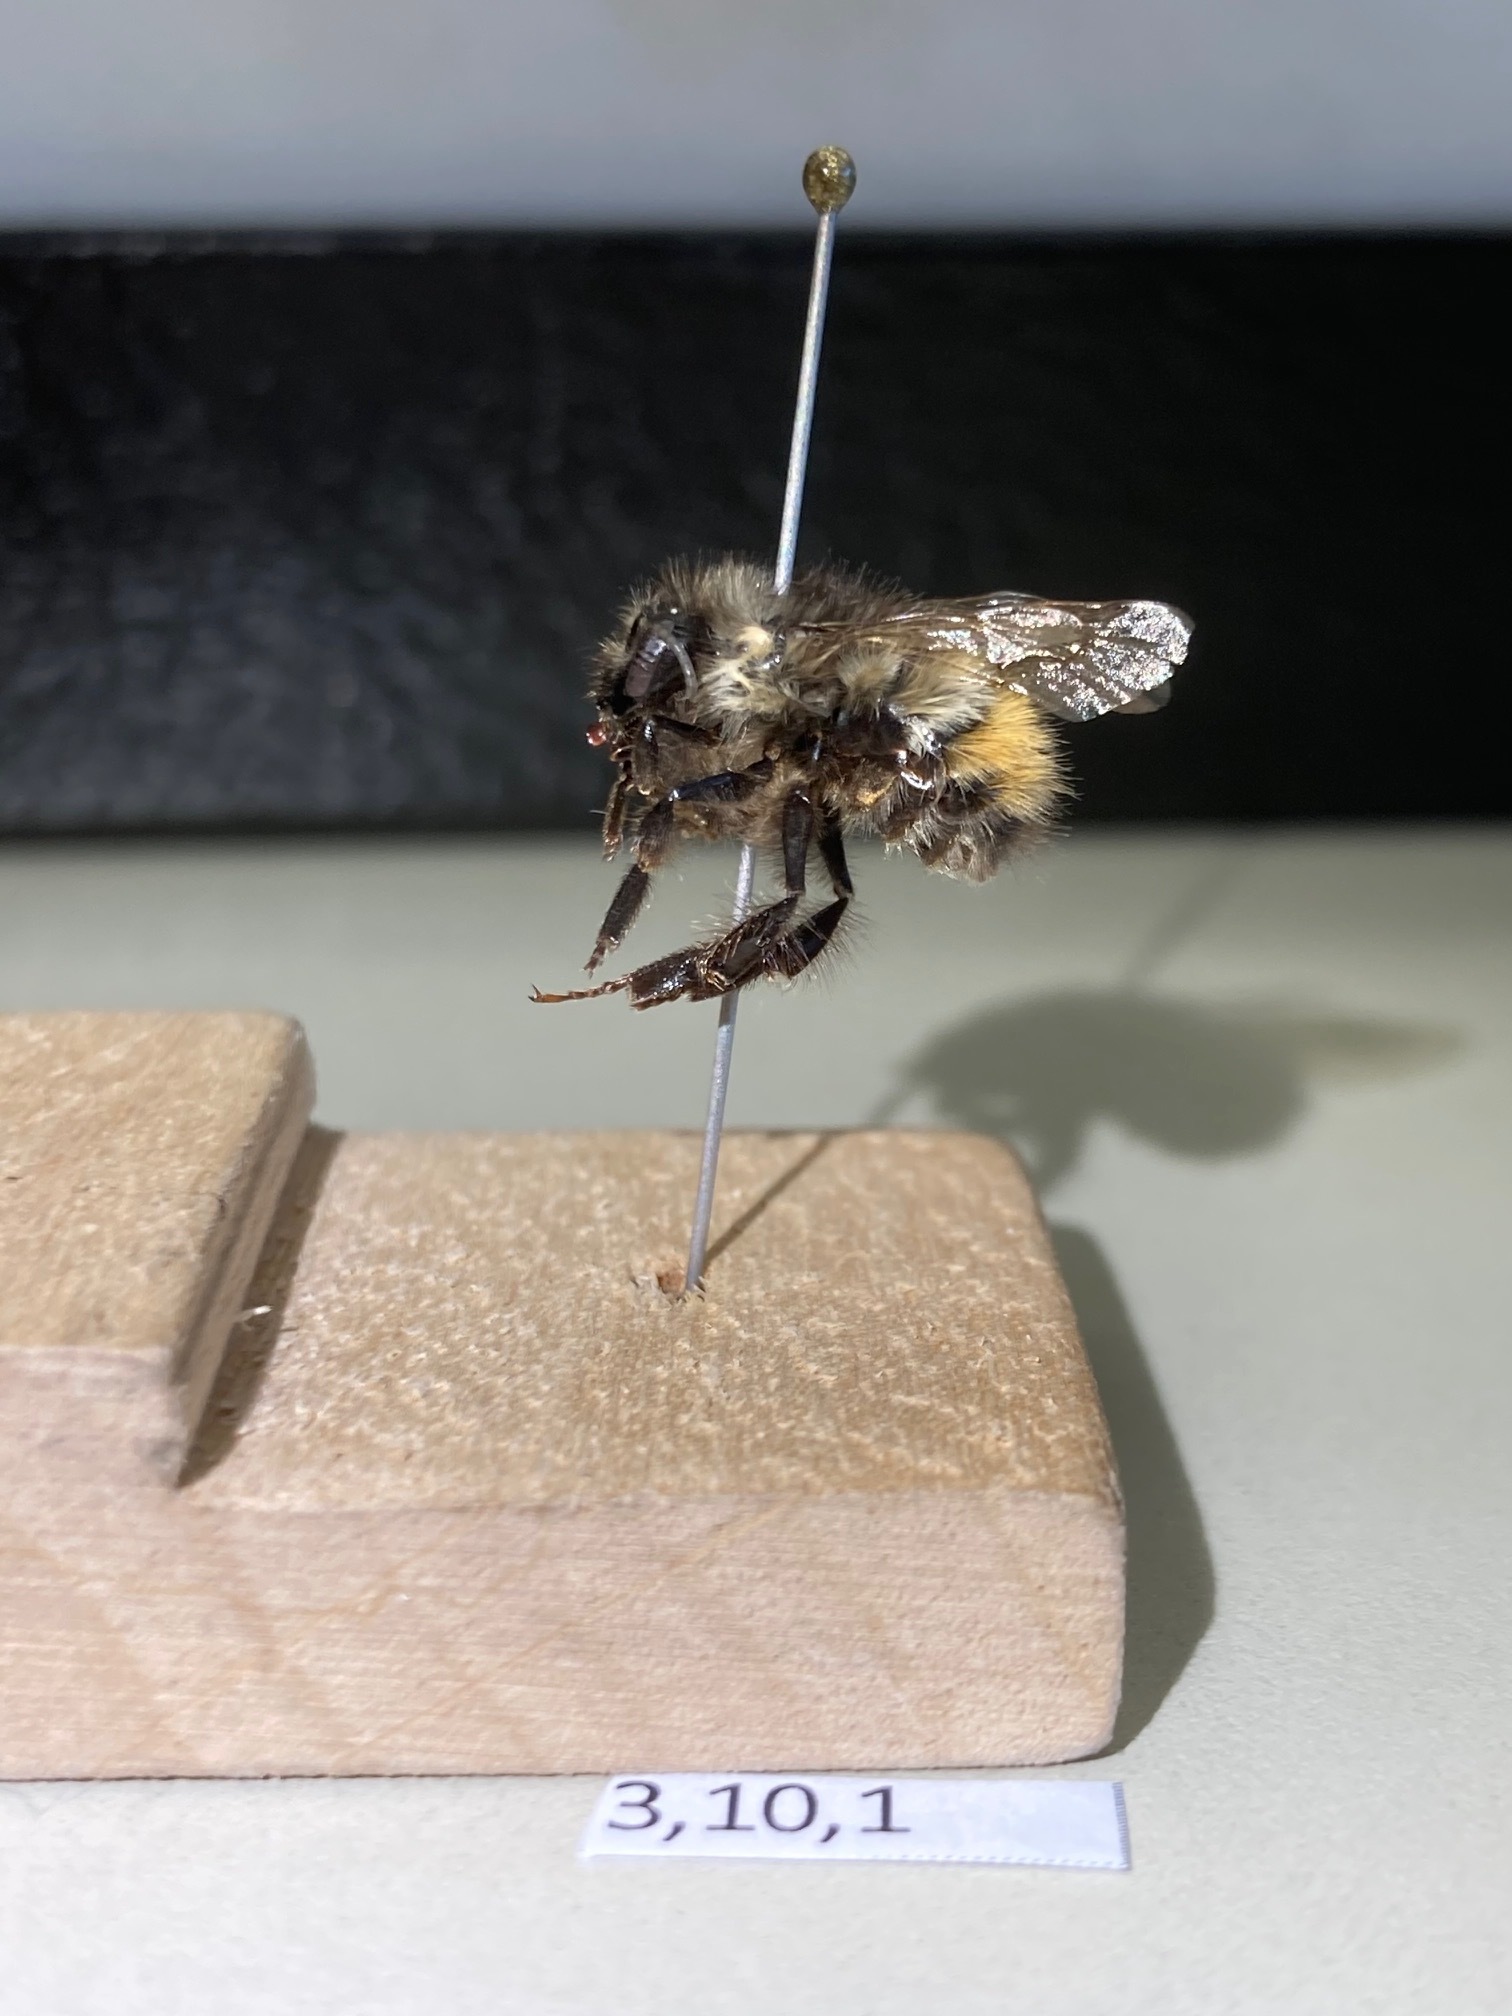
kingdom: Animalia
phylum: Arthropoda
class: Insecta
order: Hymenoptera
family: Apidae
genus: Bombus
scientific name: Bombus flavifrons
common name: Yellow head bumble bee
